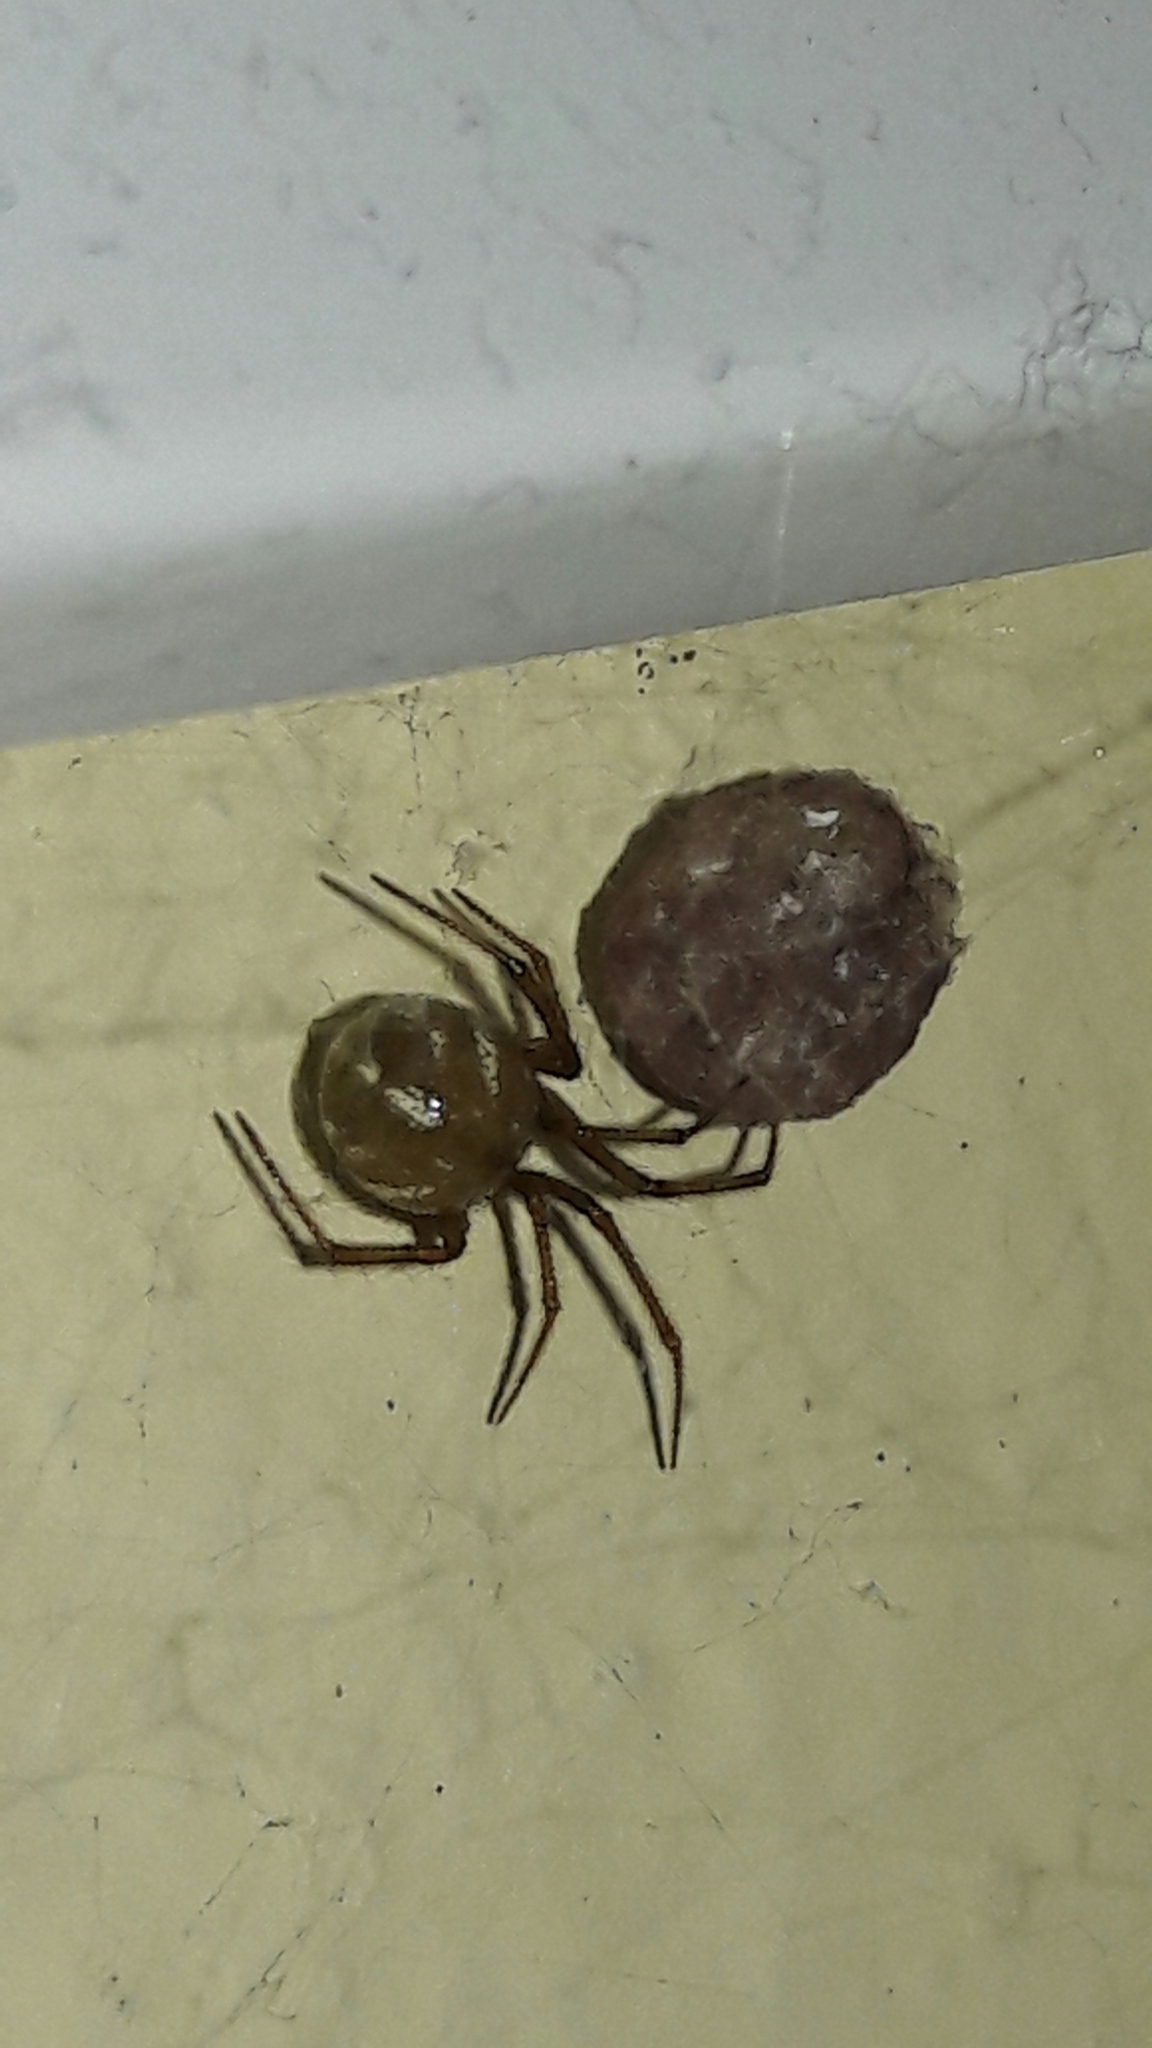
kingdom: Animalia
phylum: Arthropoda
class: Arachnida
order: Araneae
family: Theridiidae
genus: Nesticodes
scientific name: Nesticodes rufipes
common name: Cobweb spiders
